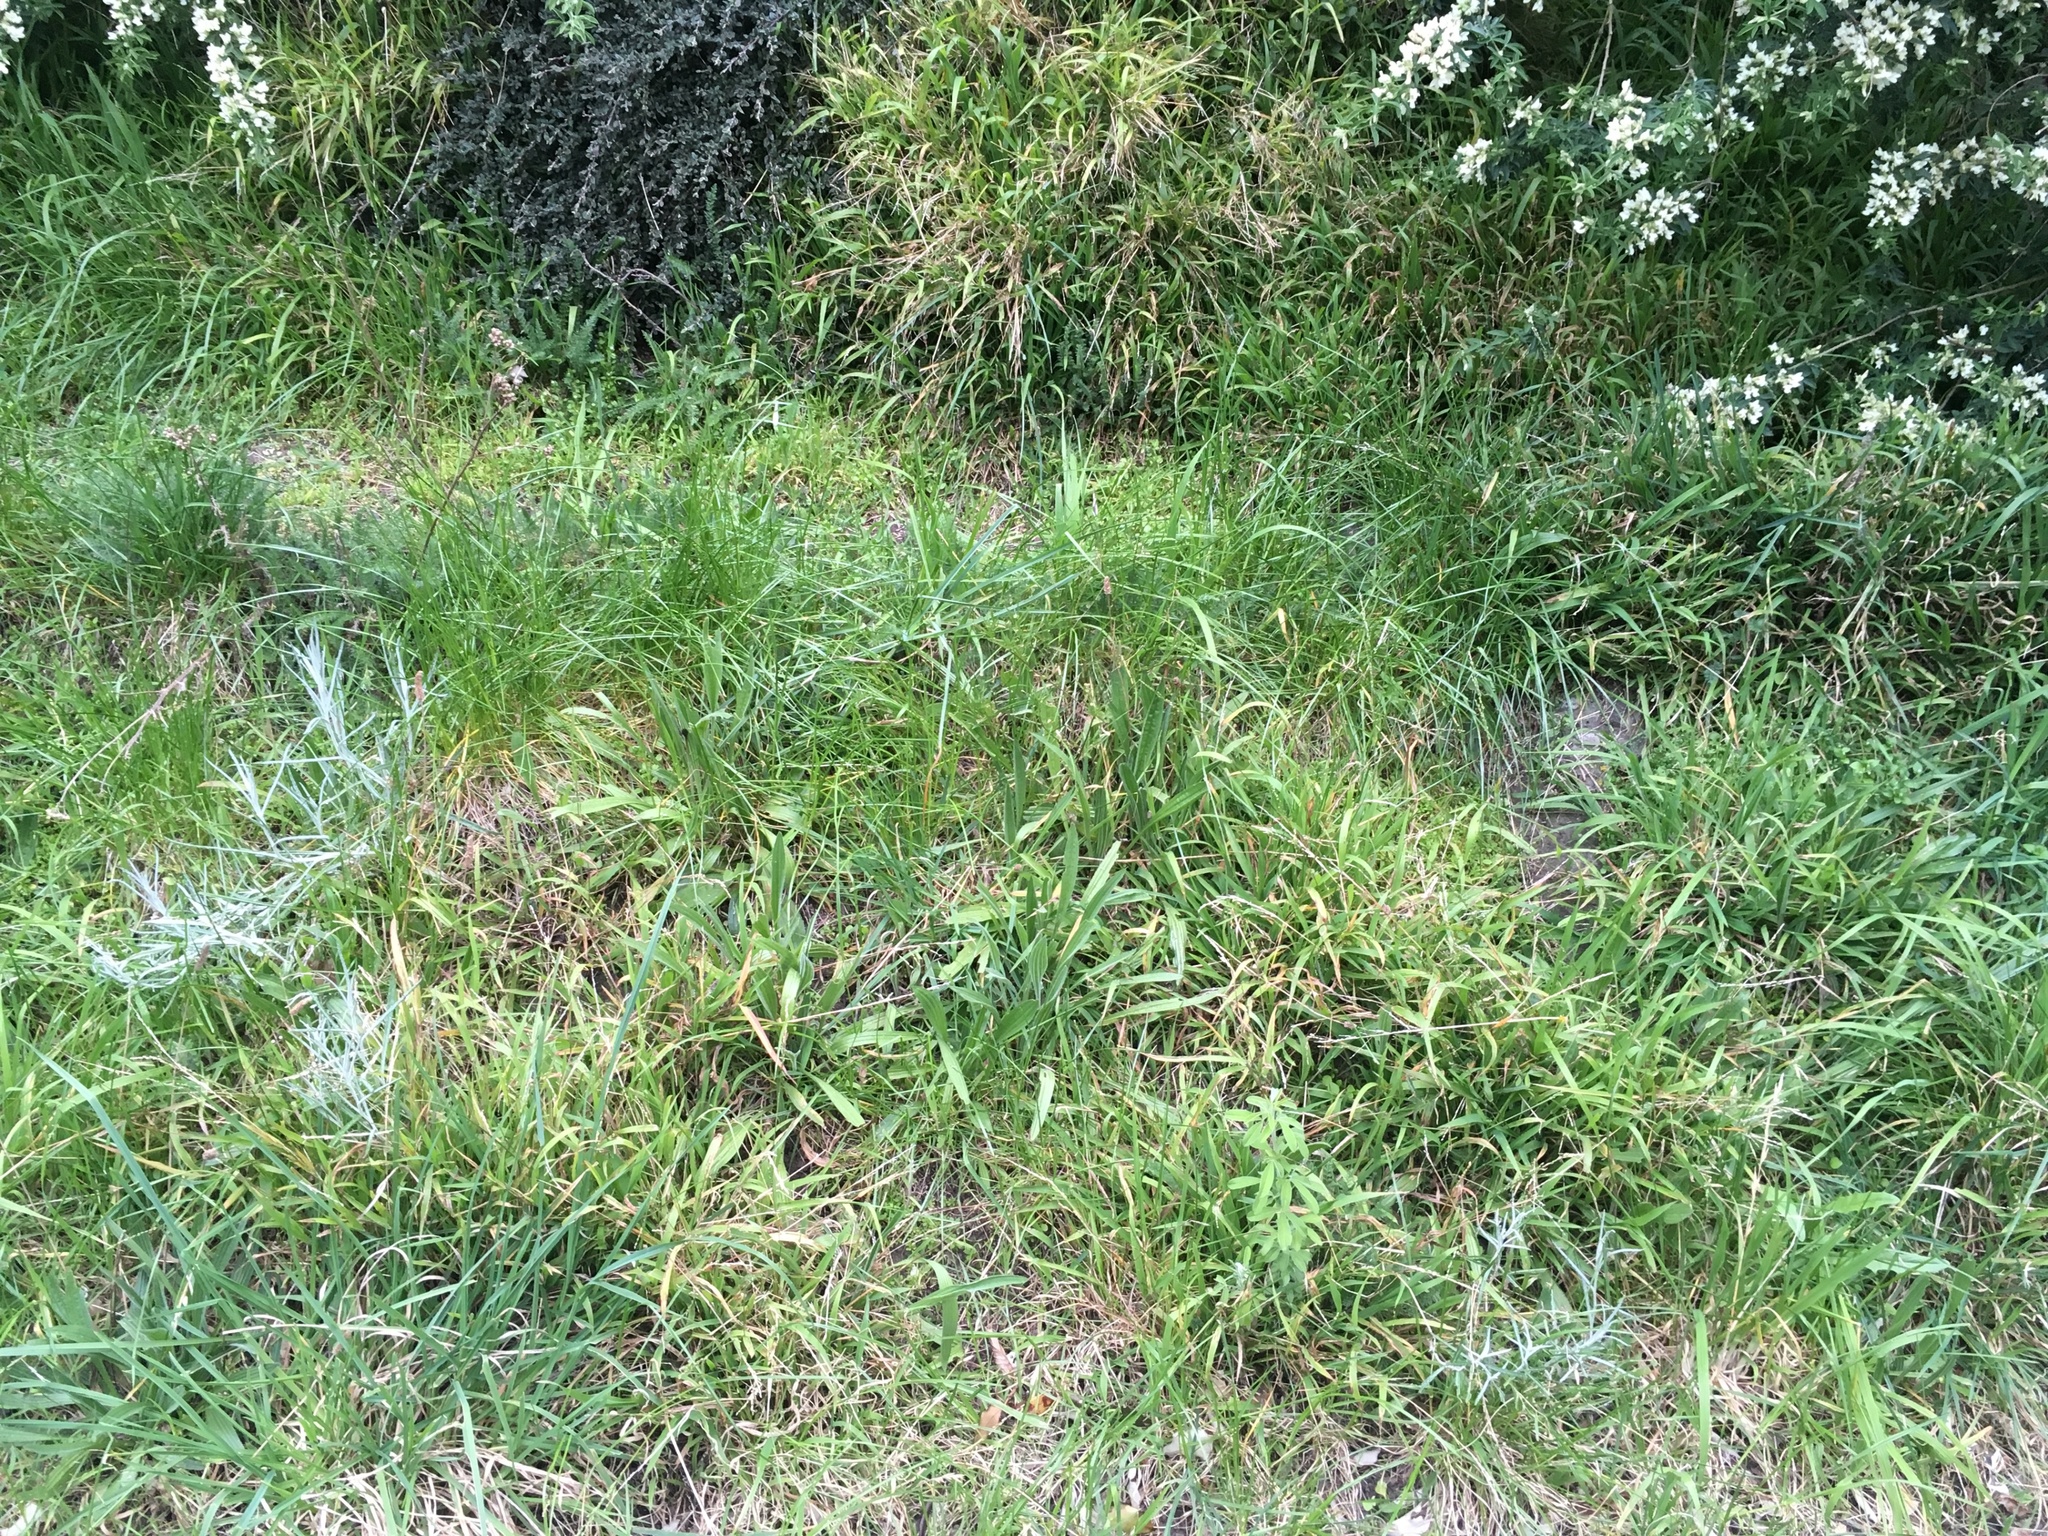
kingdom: Plantae
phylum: Tracheophyta
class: Magnoliopsida
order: Asterales
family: Asteraceae
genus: Senecio
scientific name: Senecio quadridentatus
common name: Cotton fireweed
